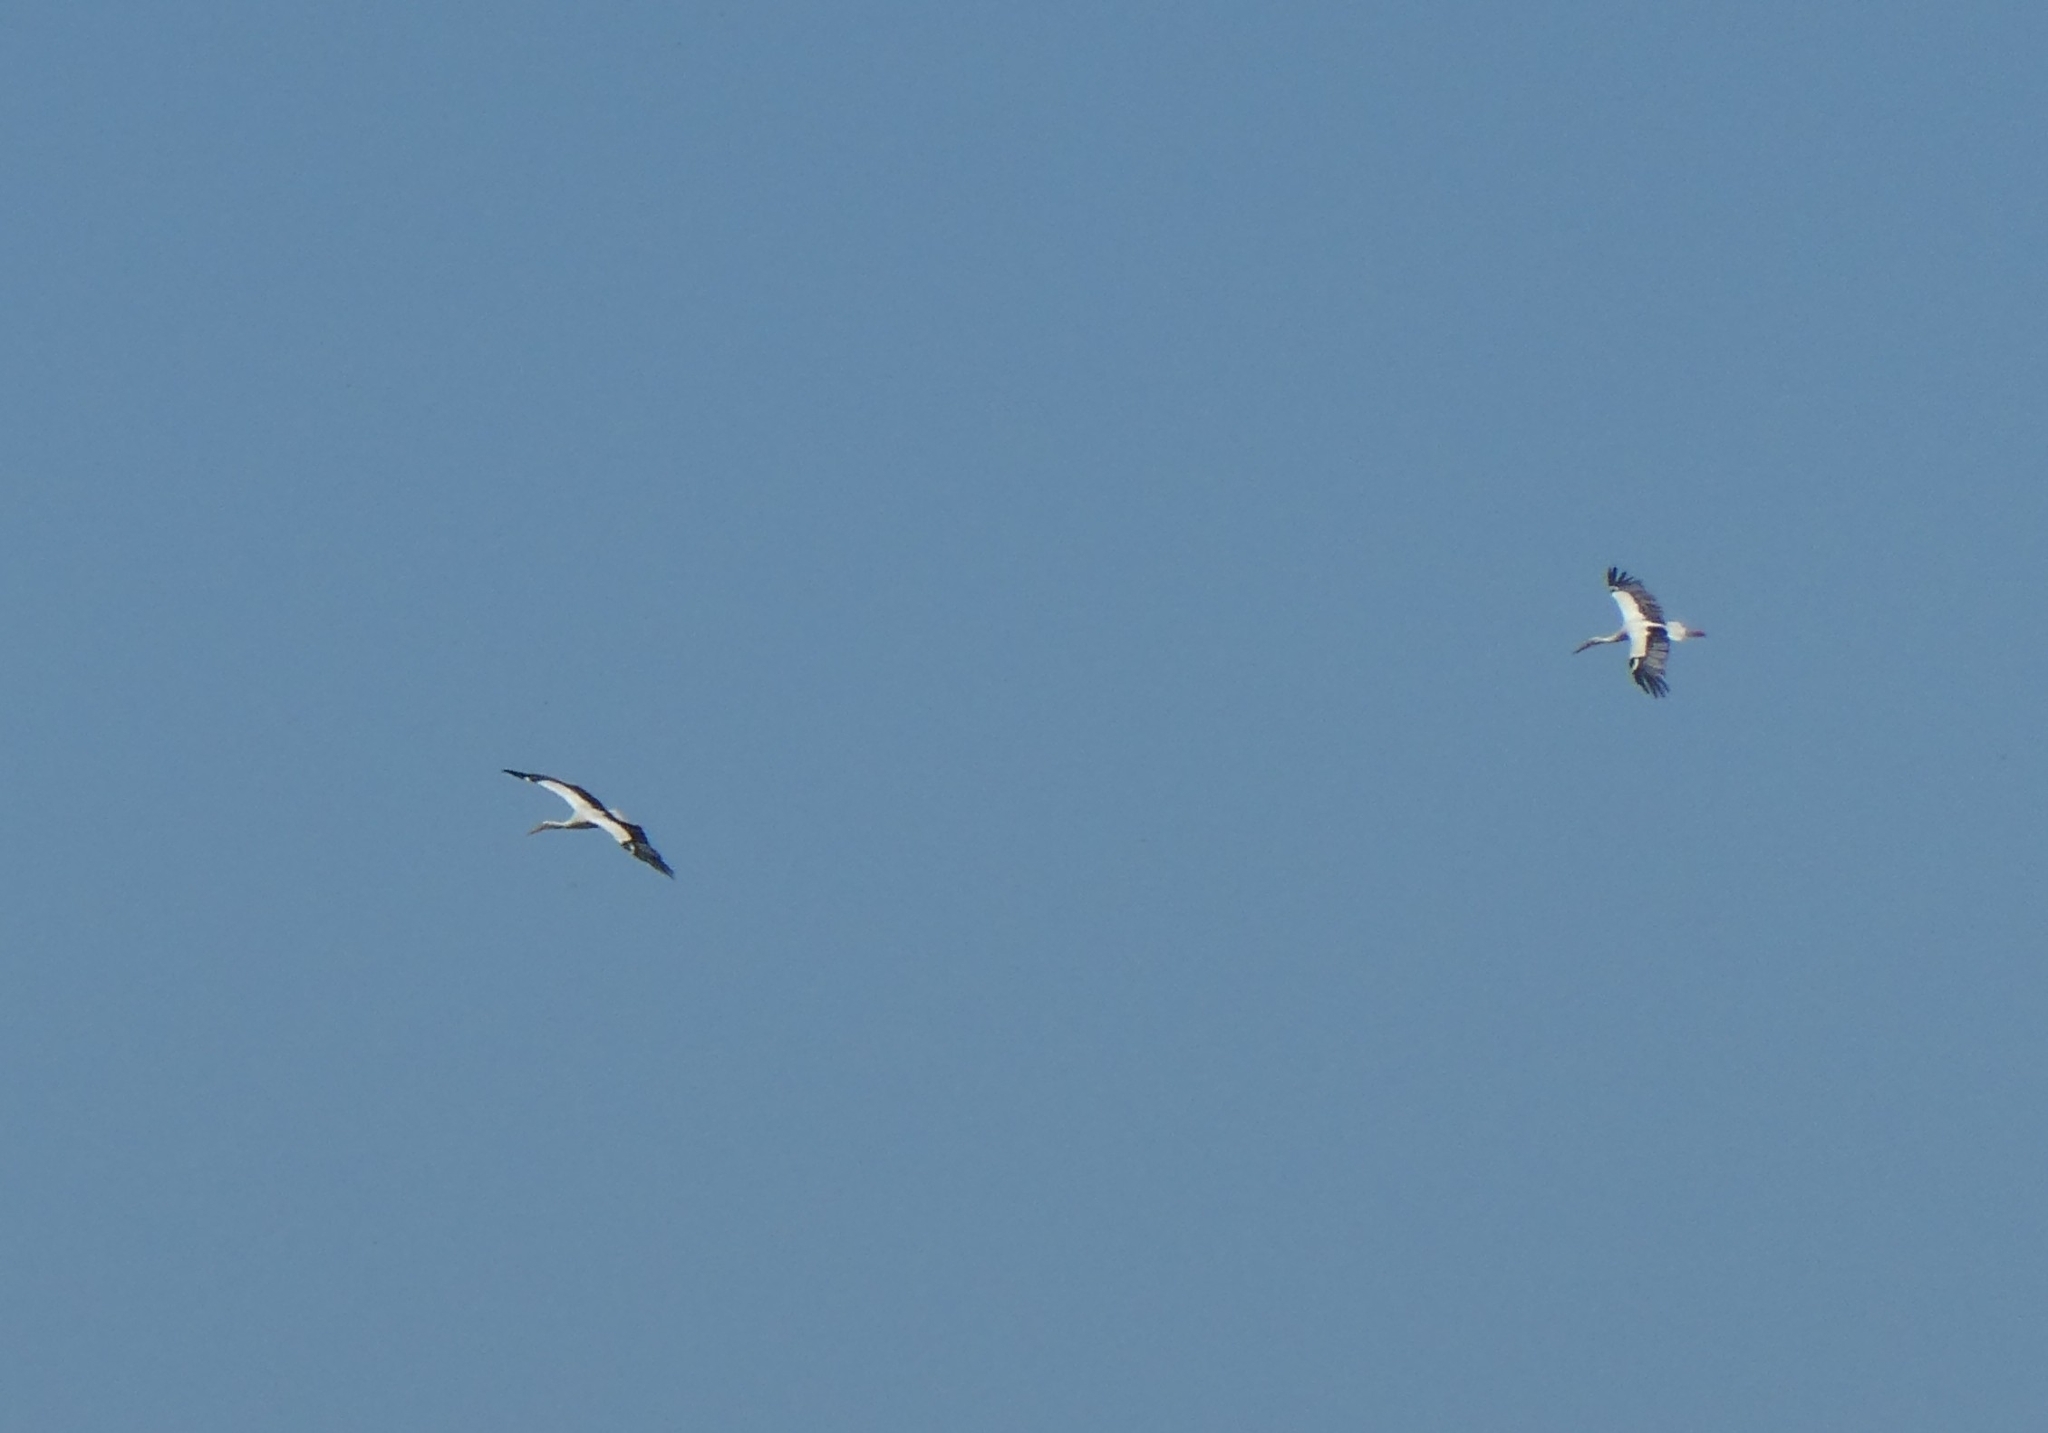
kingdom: Animalia
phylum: Chordata
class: Aves
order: Ciconiiformes
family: Ciconiidae
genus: Ciconia
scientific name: Ciconia ciconia
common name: White stork
